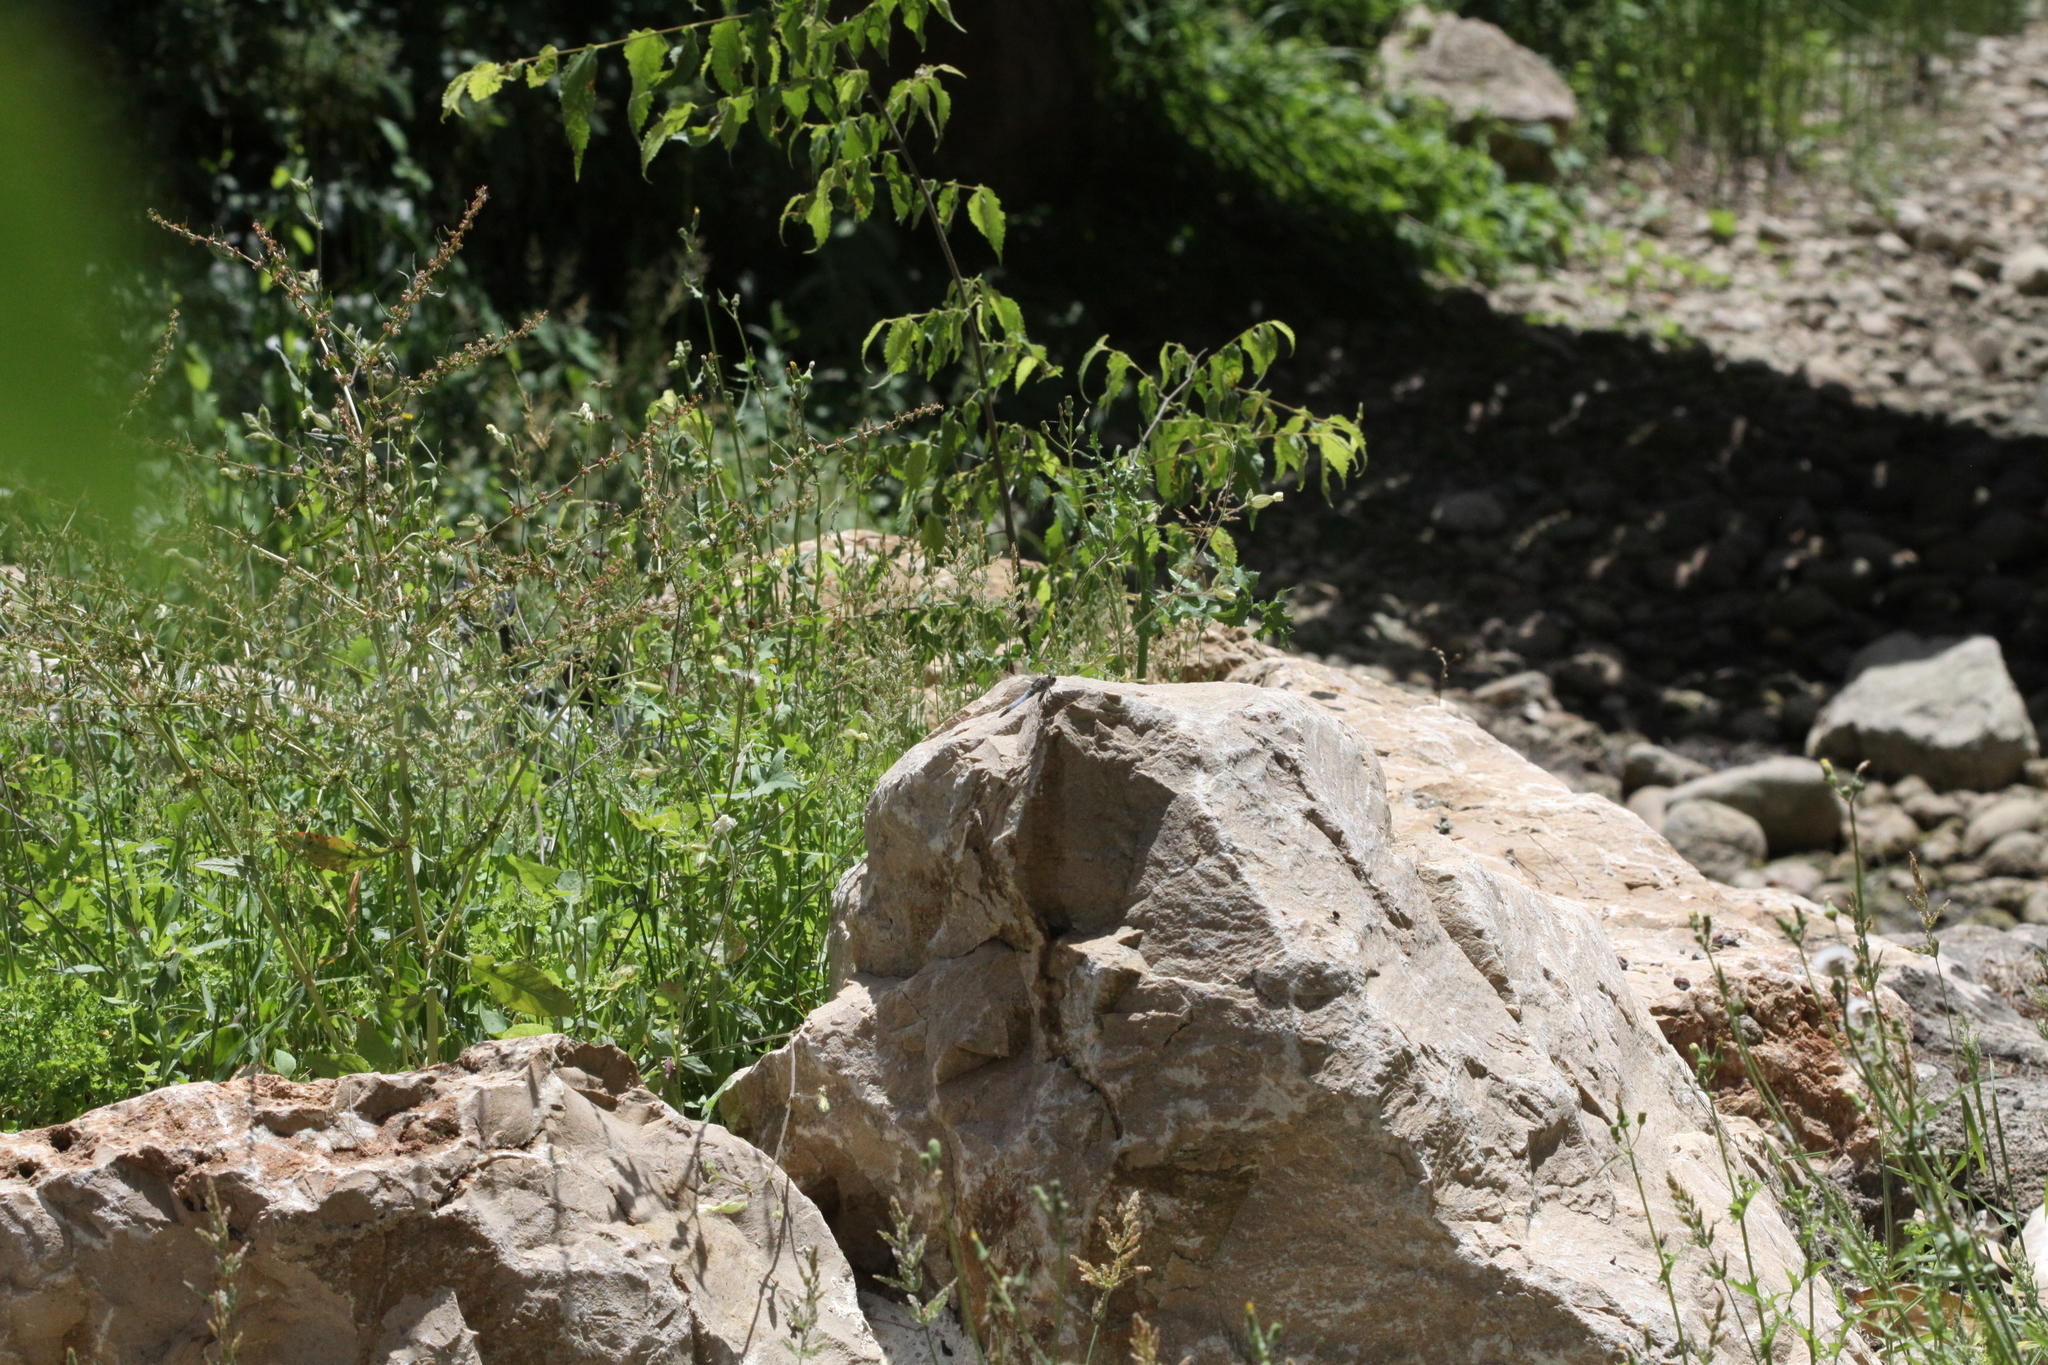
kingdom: Animalia
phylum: Arthropoda
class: Insecta
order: Odonata
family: Libellulidae
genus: Orthetrum
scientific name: Orthetrum cancellatum
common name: Black-tailed skimmer
